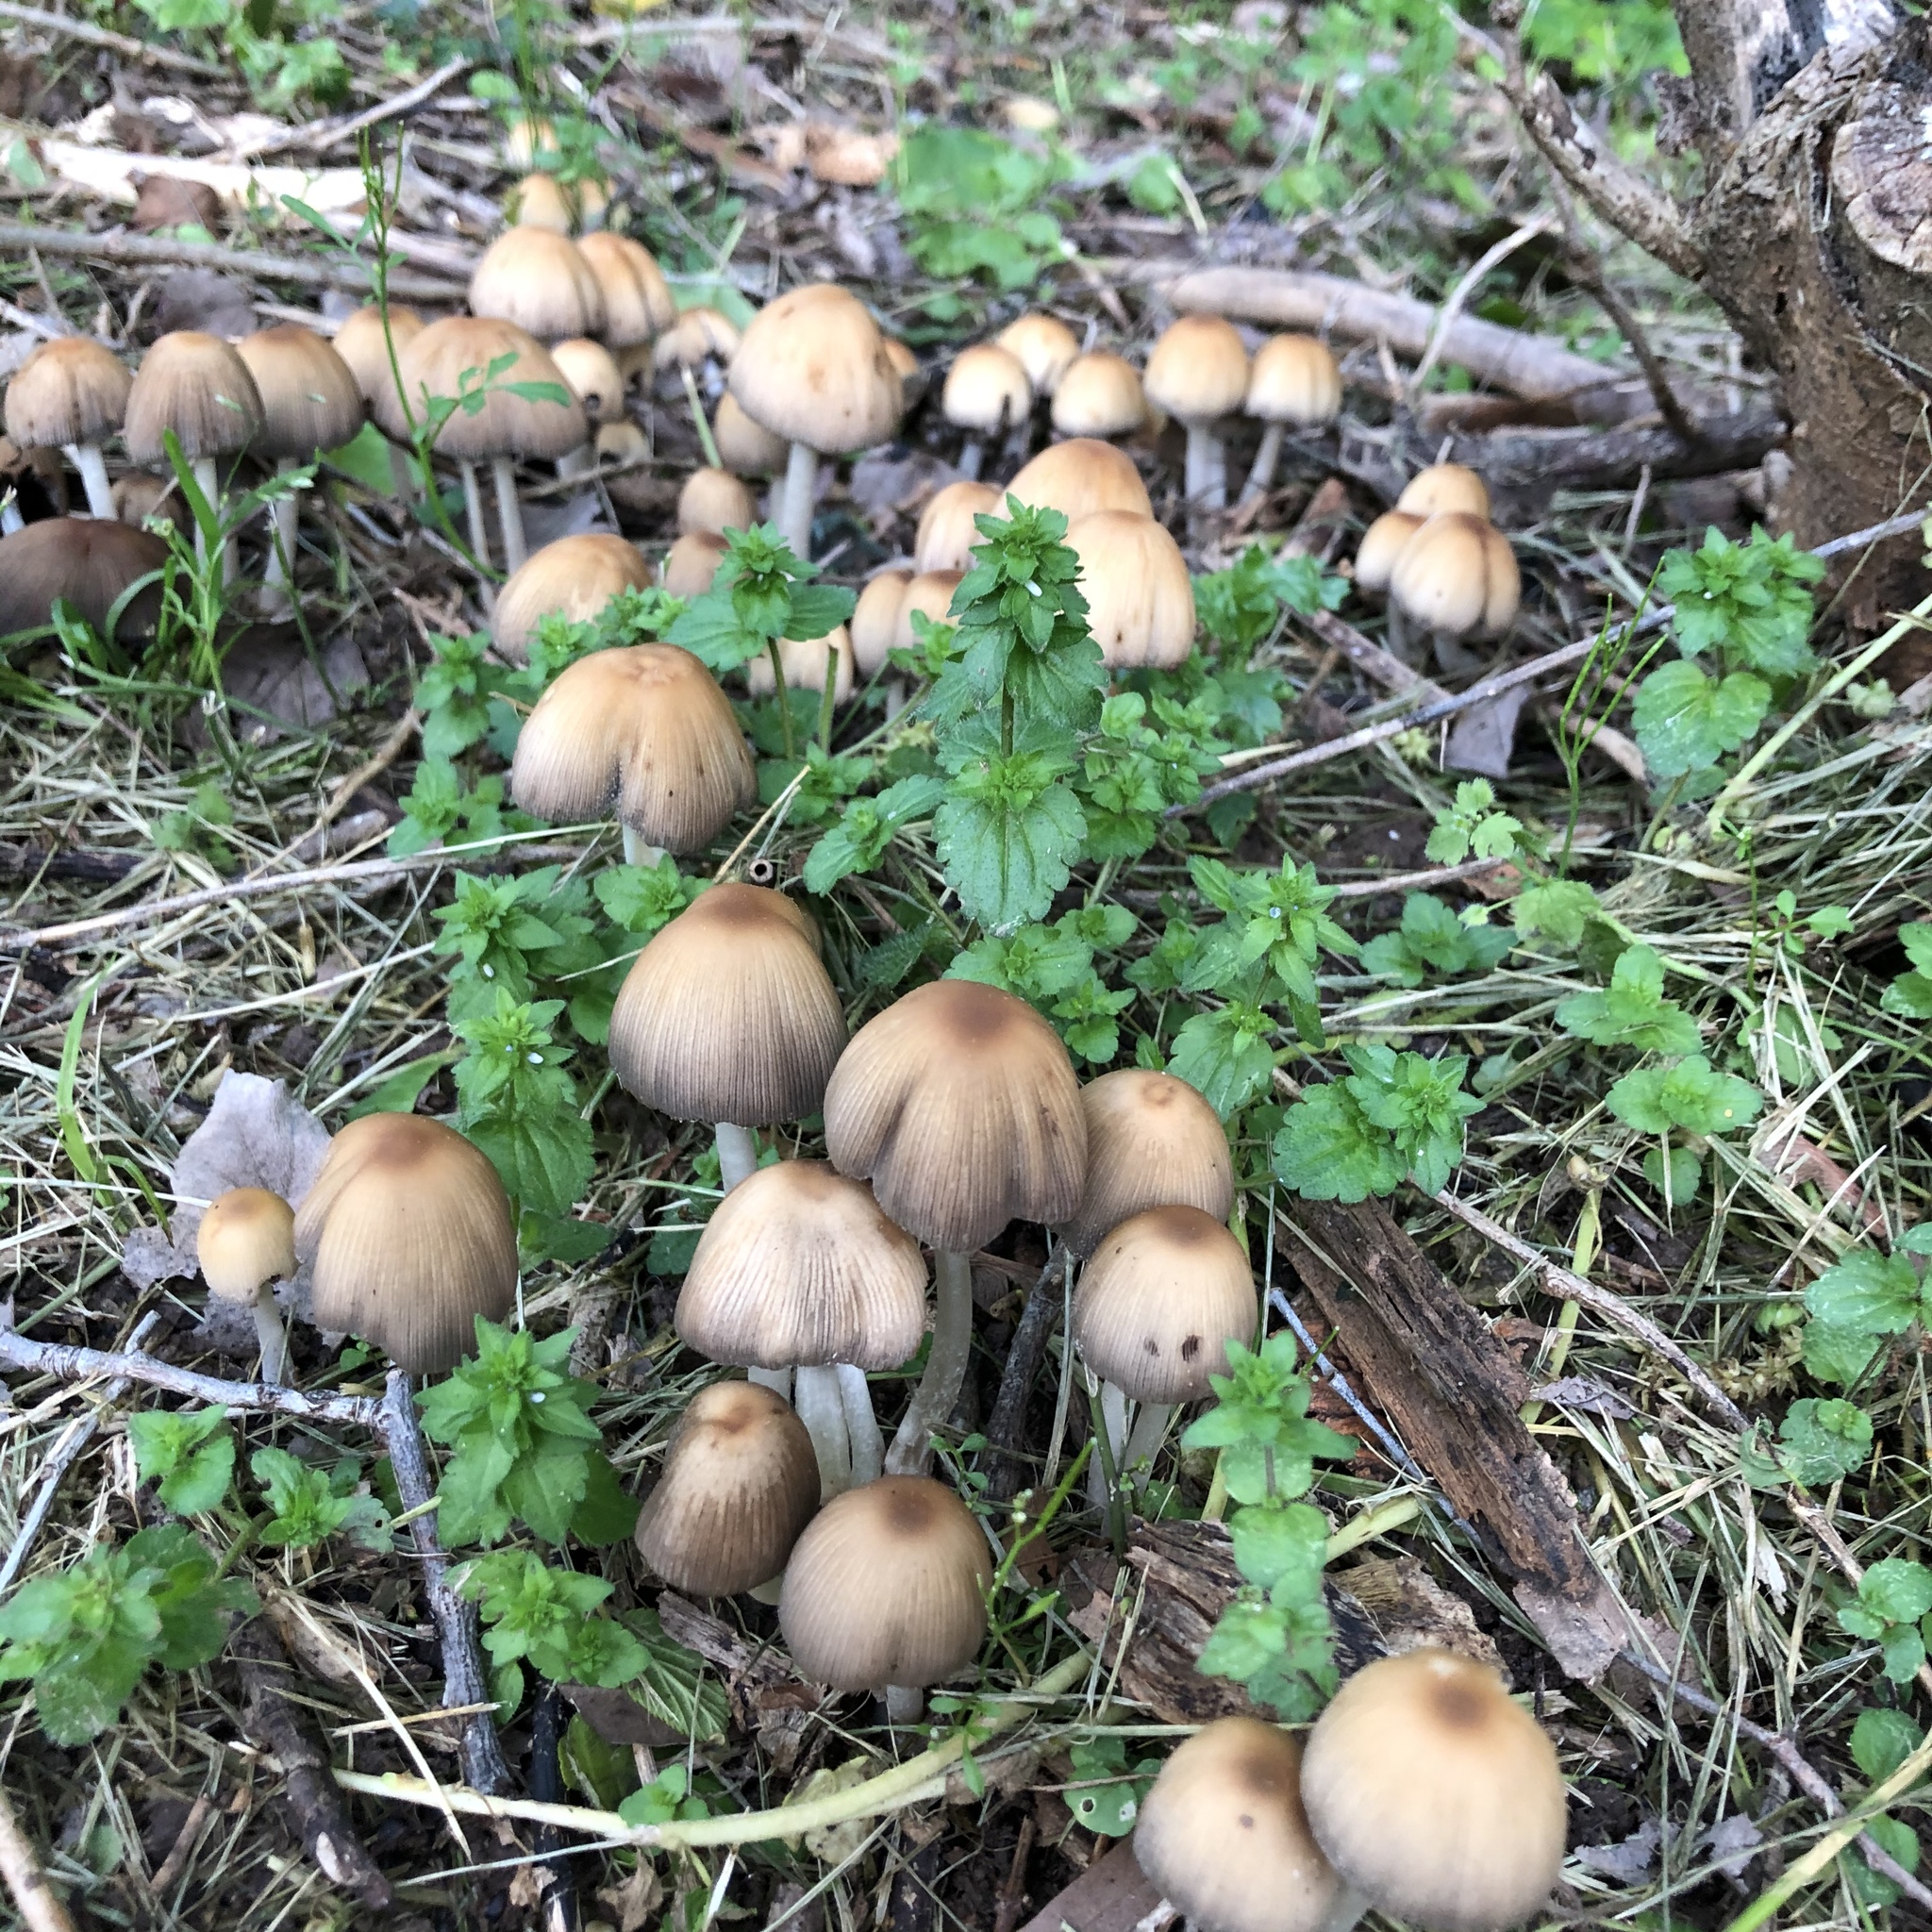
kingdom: Fungi
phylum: Basidiomycota
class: Agaricomycetes
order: Agaricales
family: Psathyrellaceae
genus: Coprinellus
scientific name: Coprinellus micaceus
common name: Glistening ink-cap
